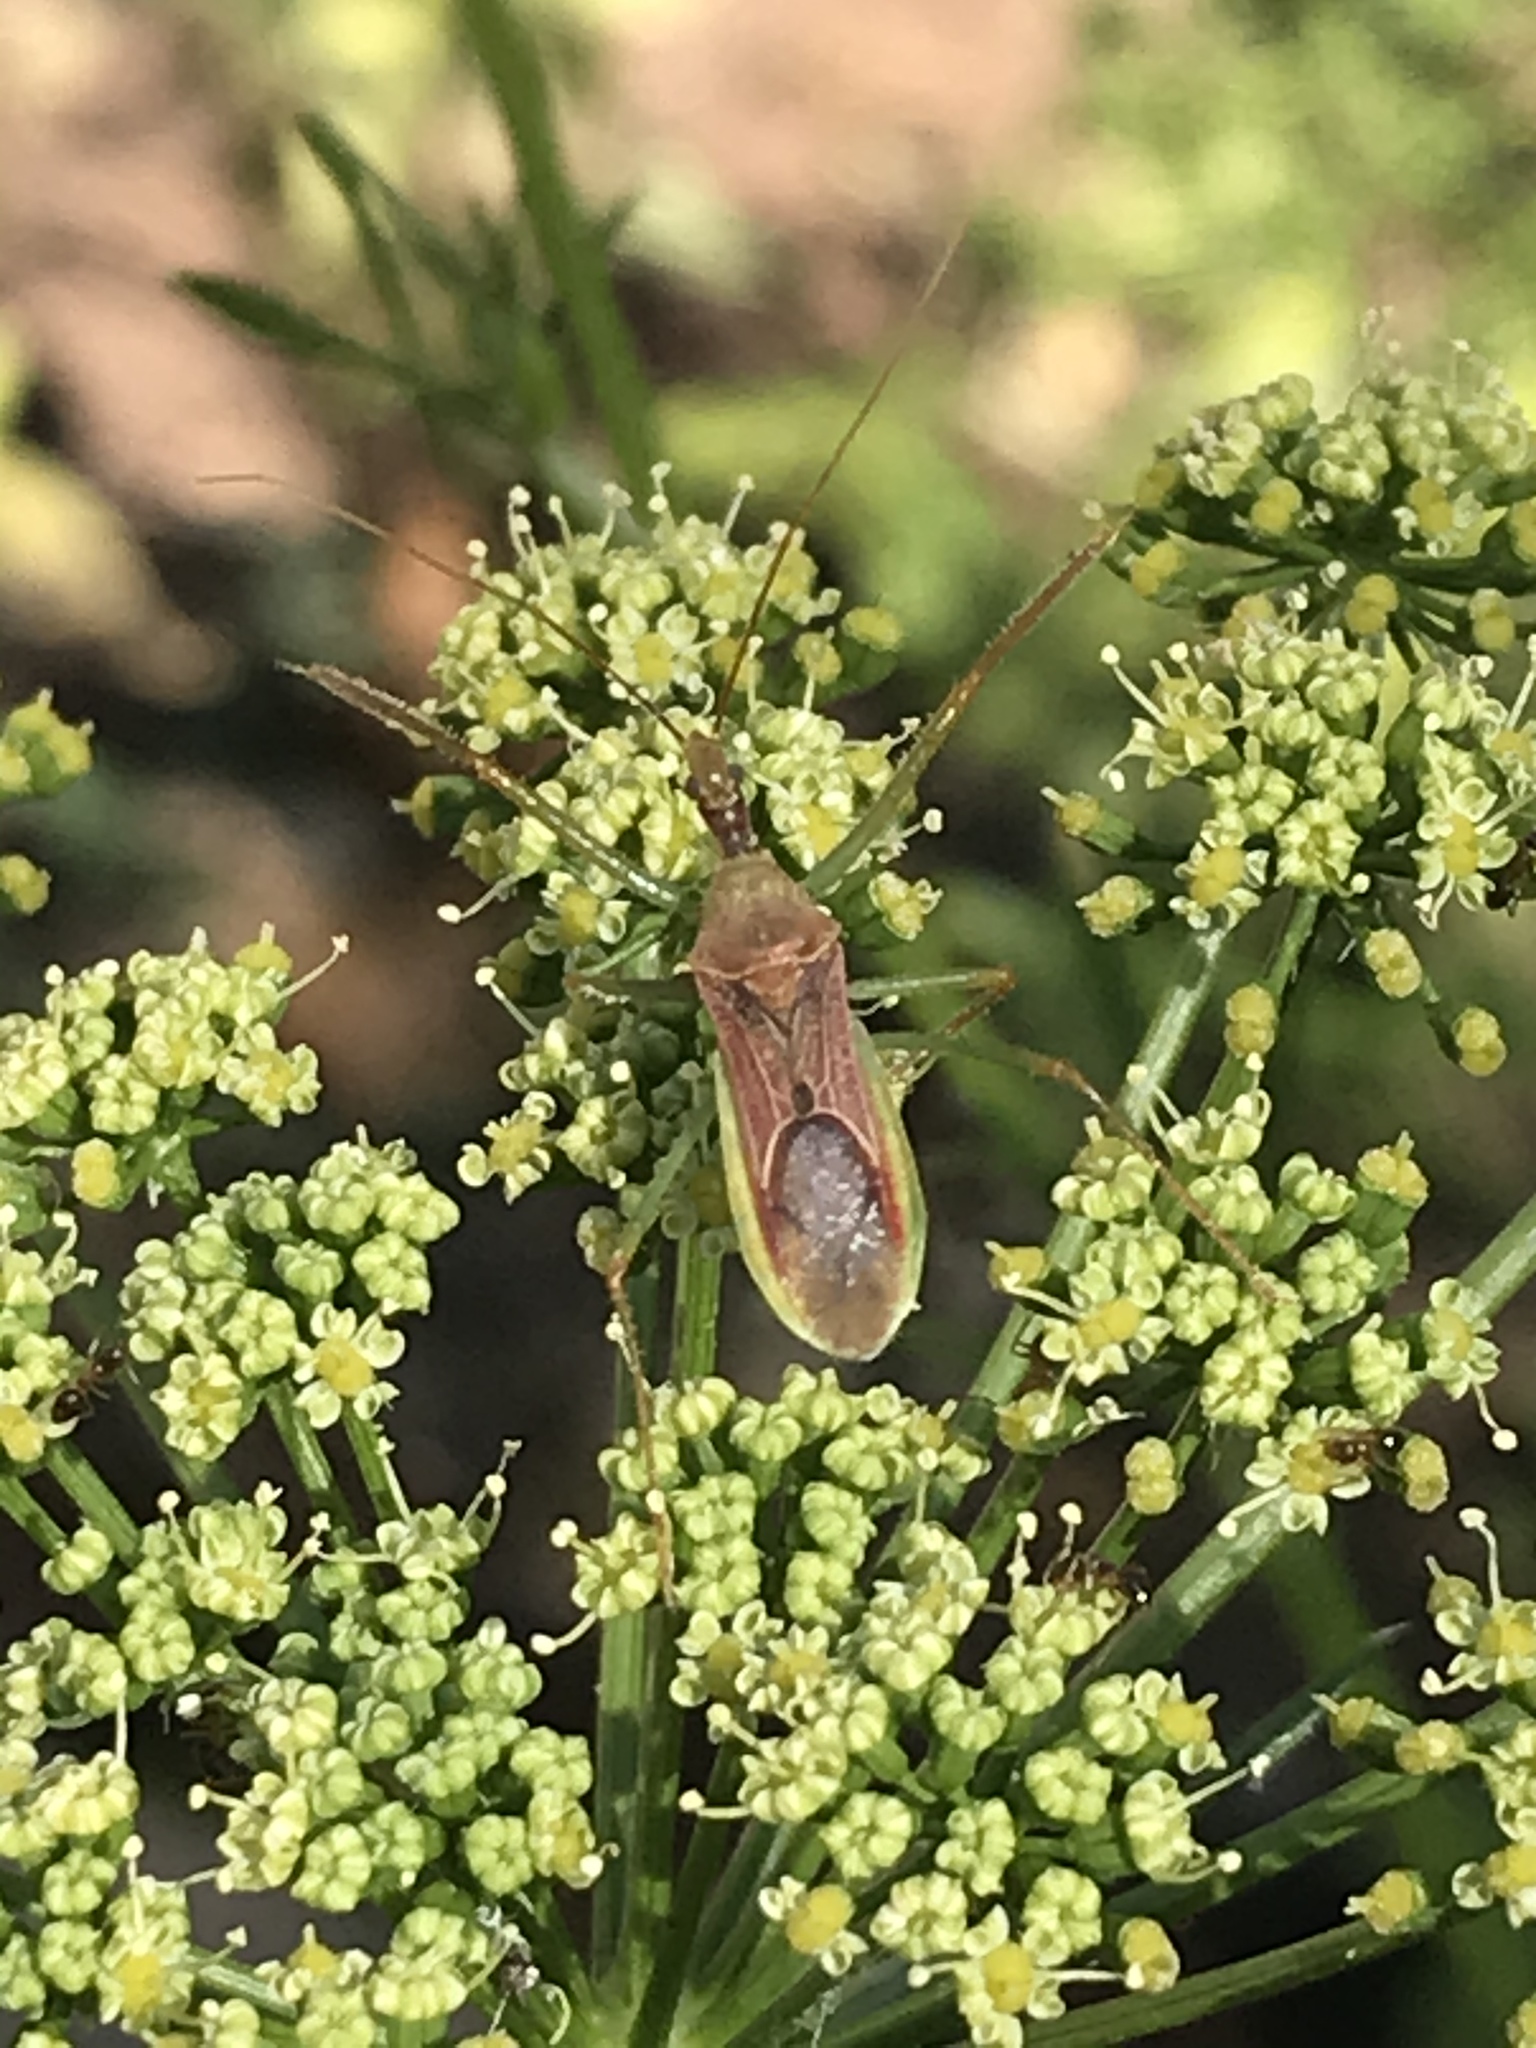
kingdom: Animalia
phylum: Arthropoda
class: Insecta
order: Hemiptera
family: Reduviidae
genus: Zelus
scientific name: Zelus renardii
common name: Assassin bug
